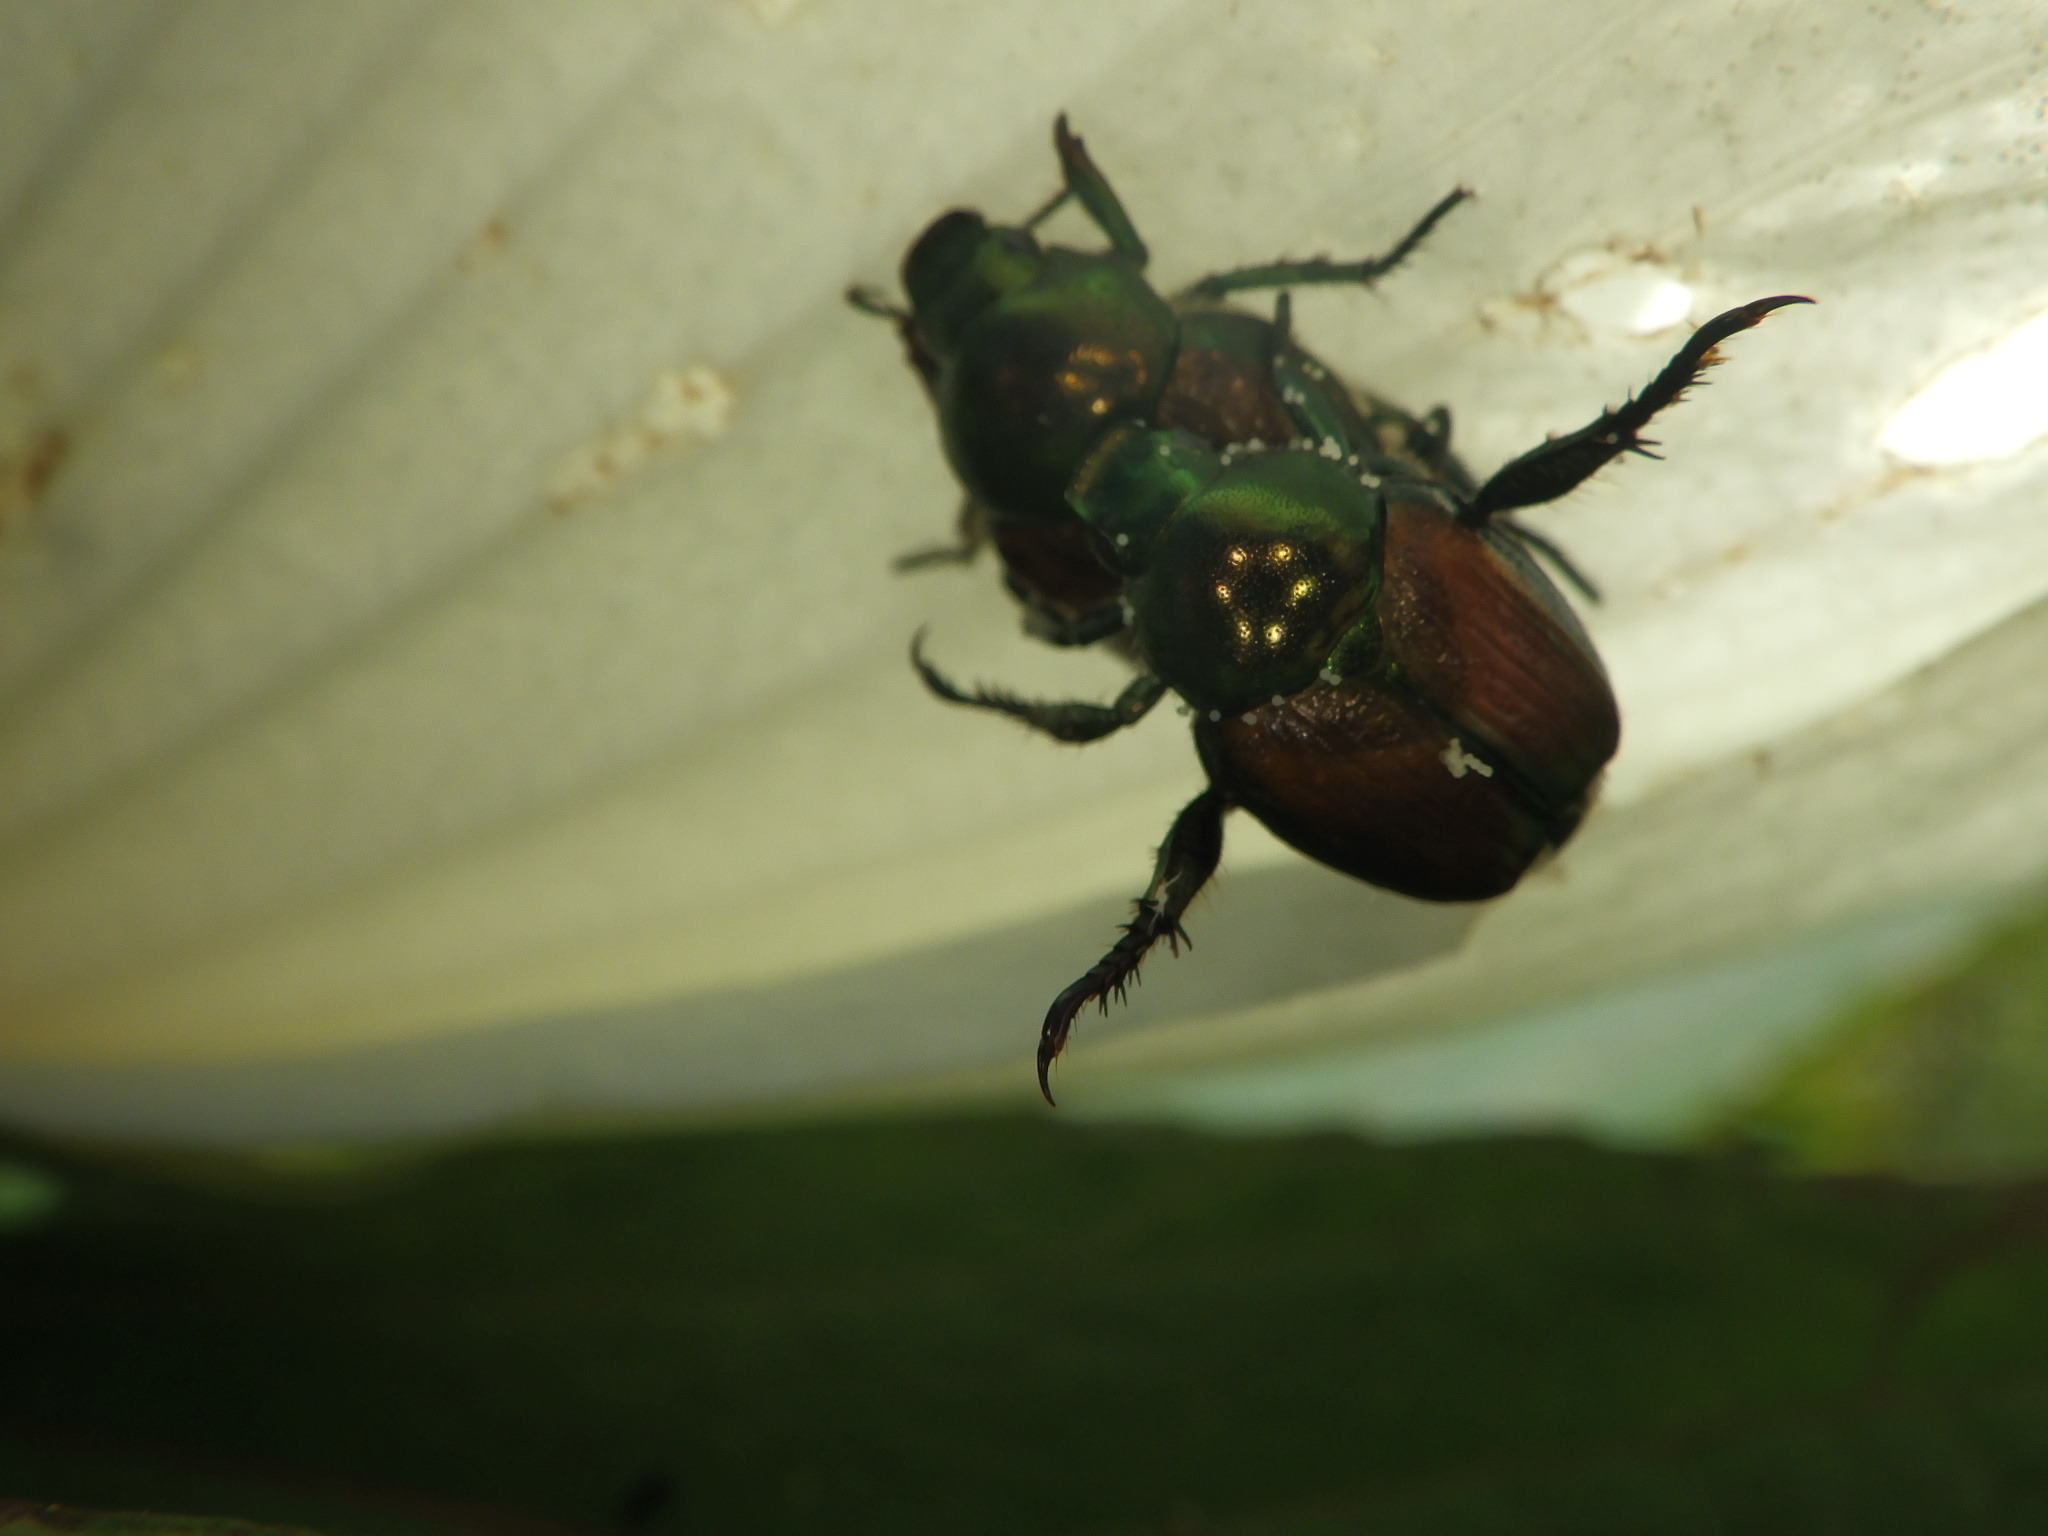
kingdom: Animalia
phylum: Arthropoda
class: Insecta
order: Coleoptera
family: Scarabaeidae
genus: Popillia
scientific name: Popillia japonica
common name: Japanese beetle
